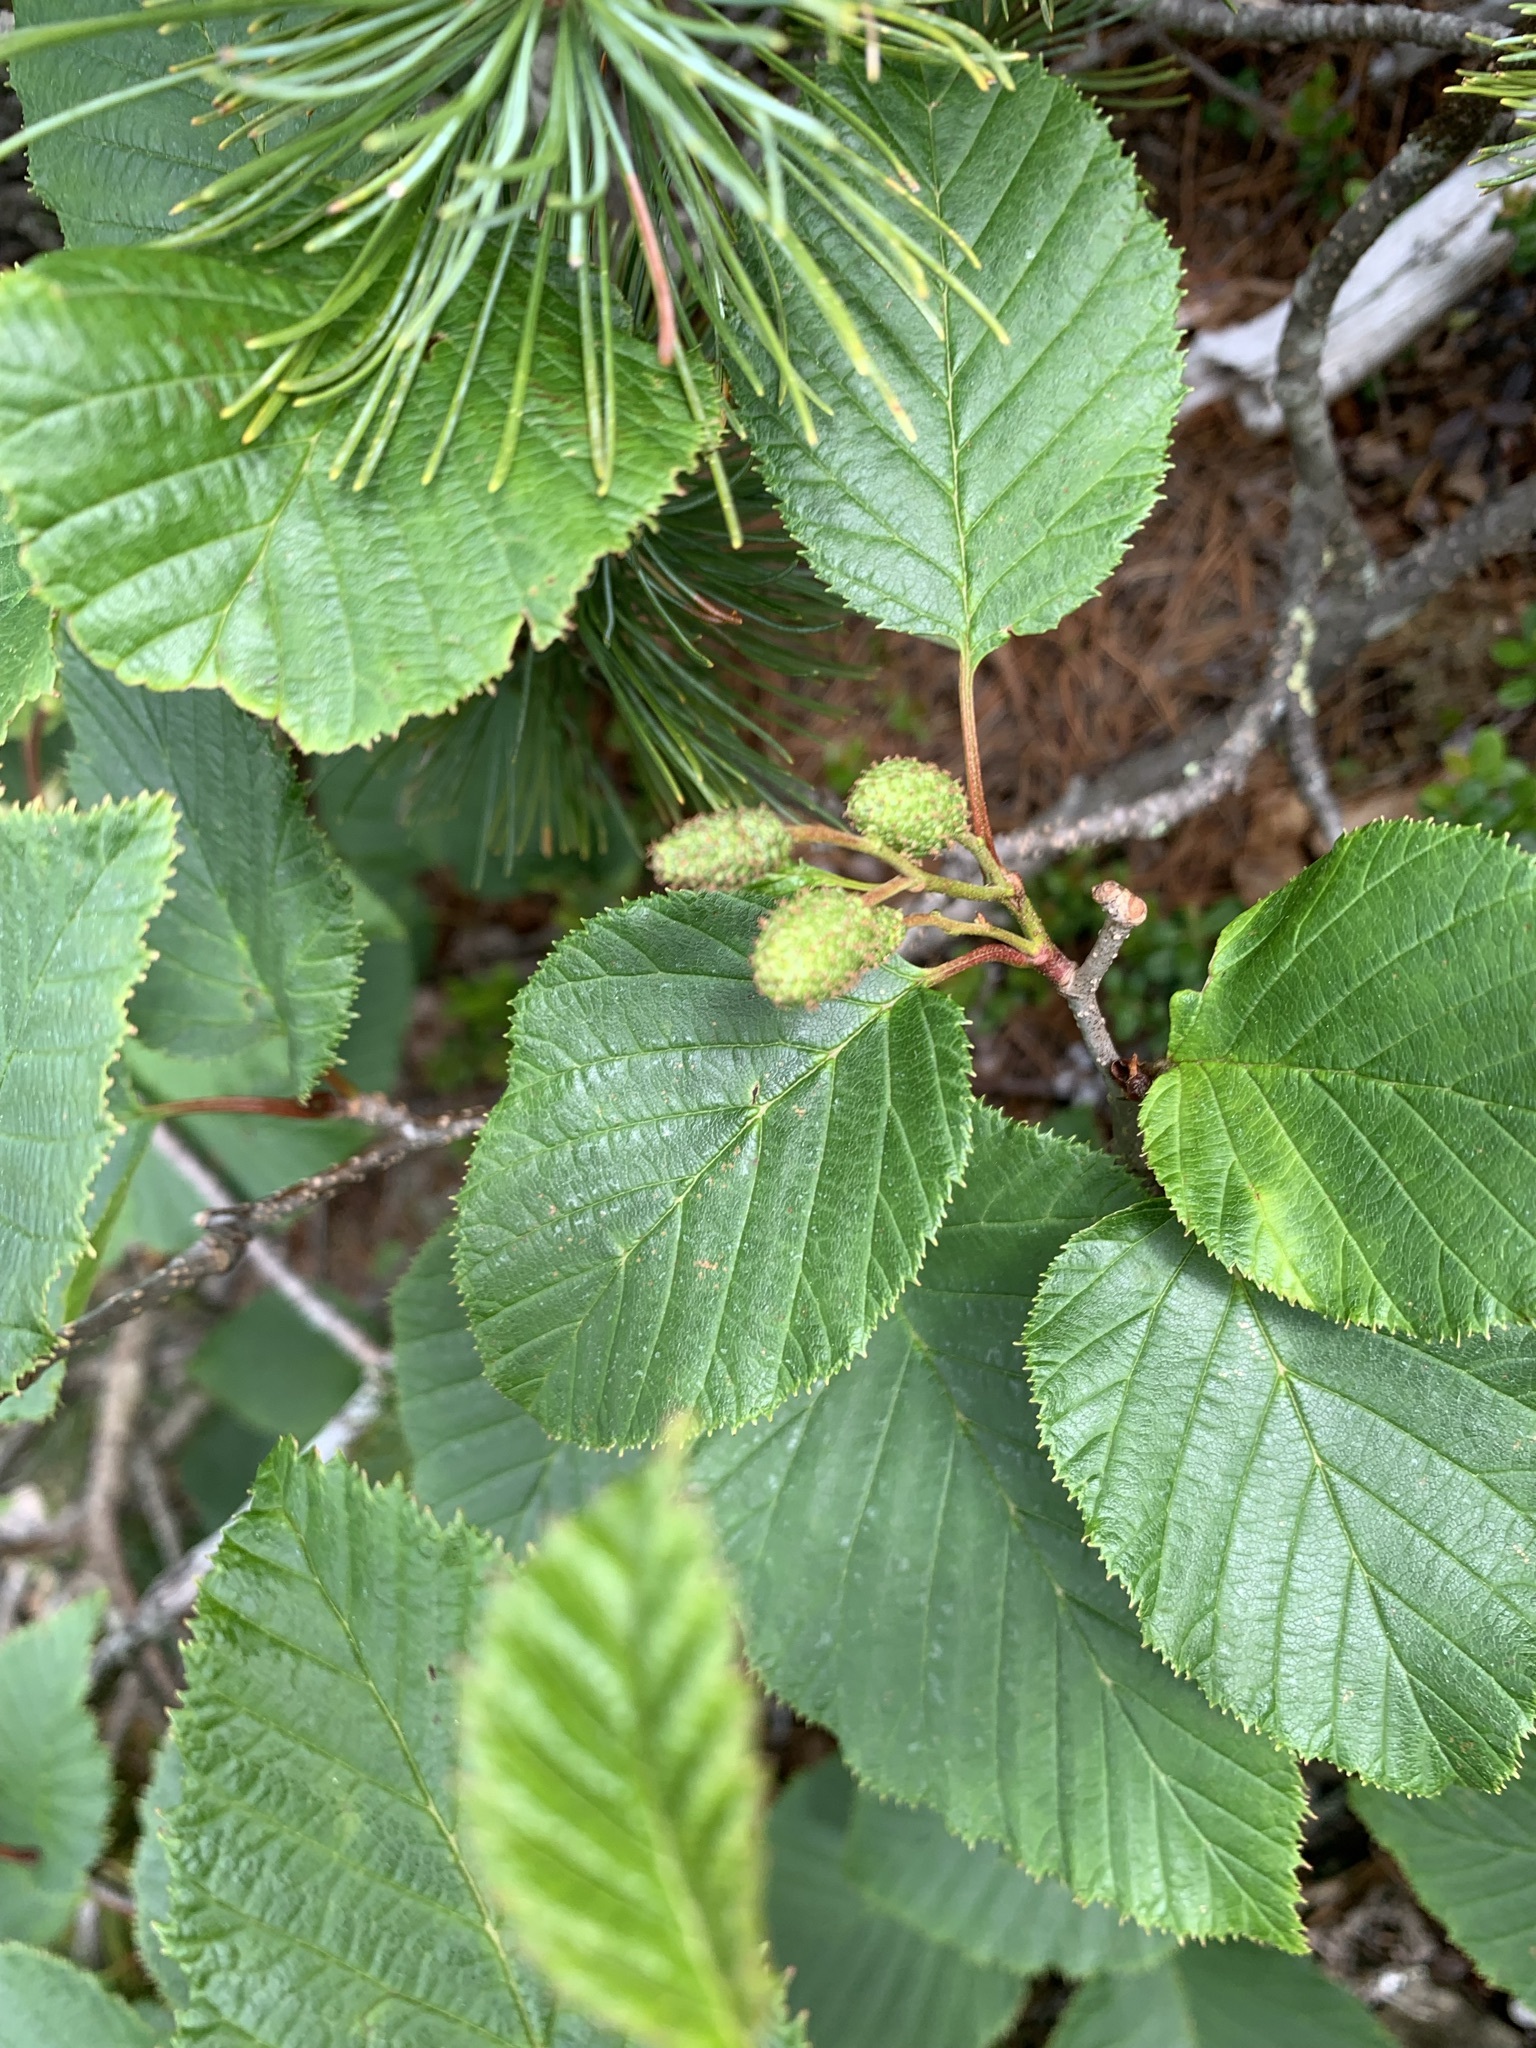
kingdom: Plantae
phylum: Tracheophyta
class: Magnoliopsida
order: Fagales
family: Betulaceae
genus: Alnus
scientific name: Alnus maximowiczii
